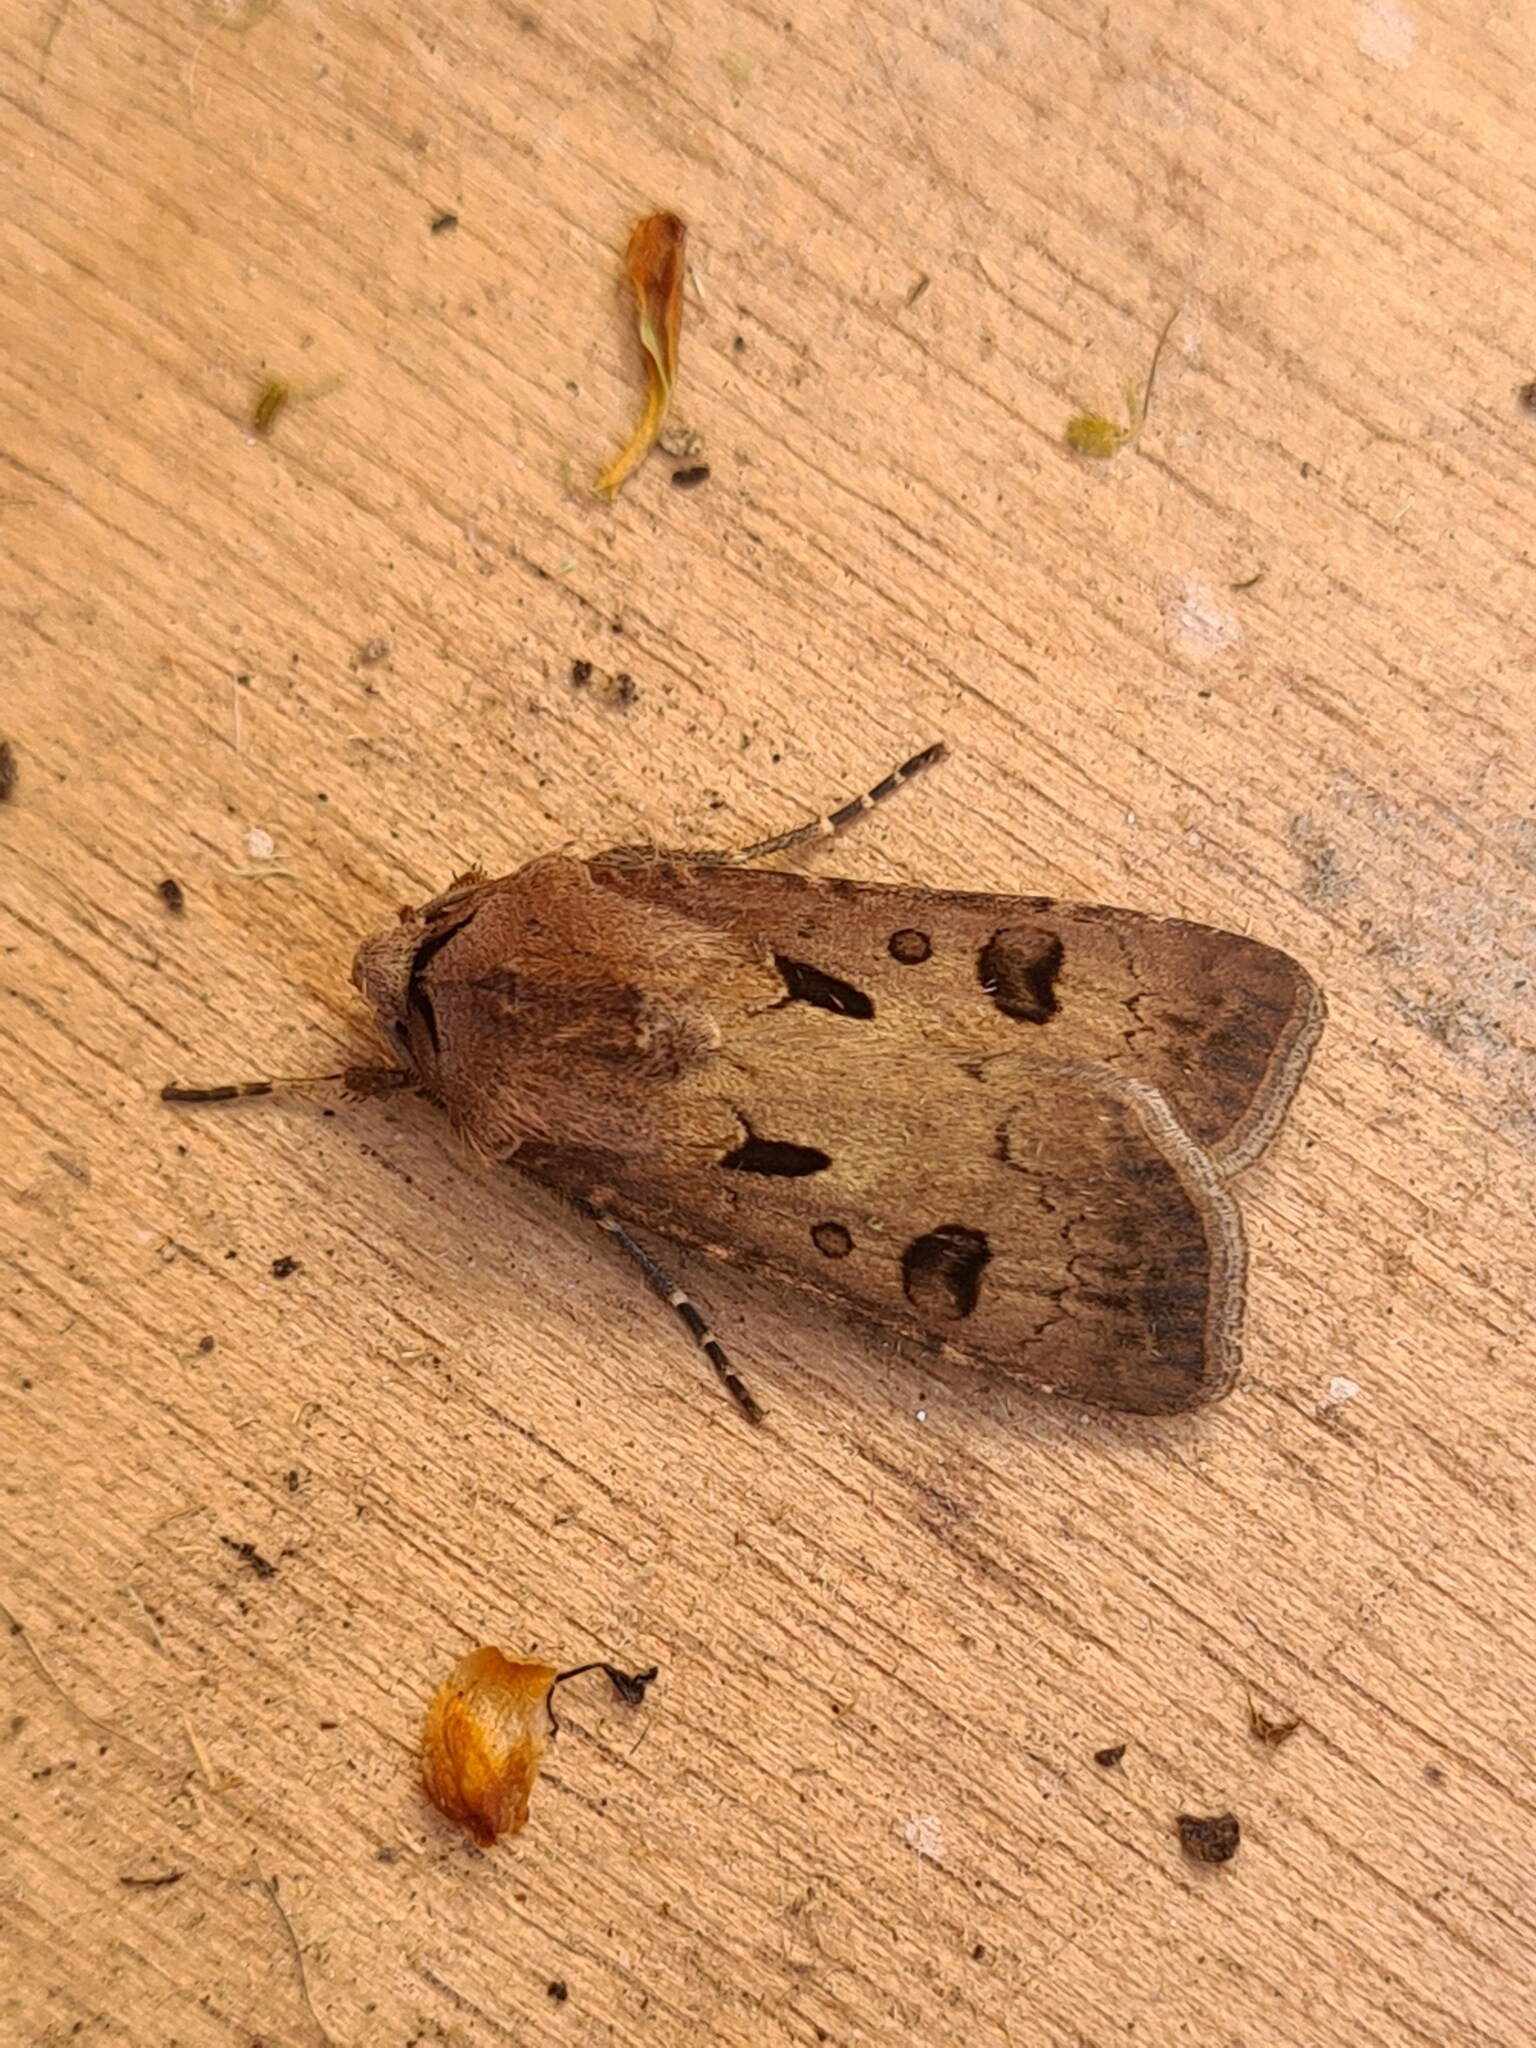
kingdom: Animalia
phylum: Arthropoda
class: Insecta
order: Lepidoptera
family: Noctuidae
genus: Agrotis
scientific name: Agrotis exclamationis
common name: Heart and dart
